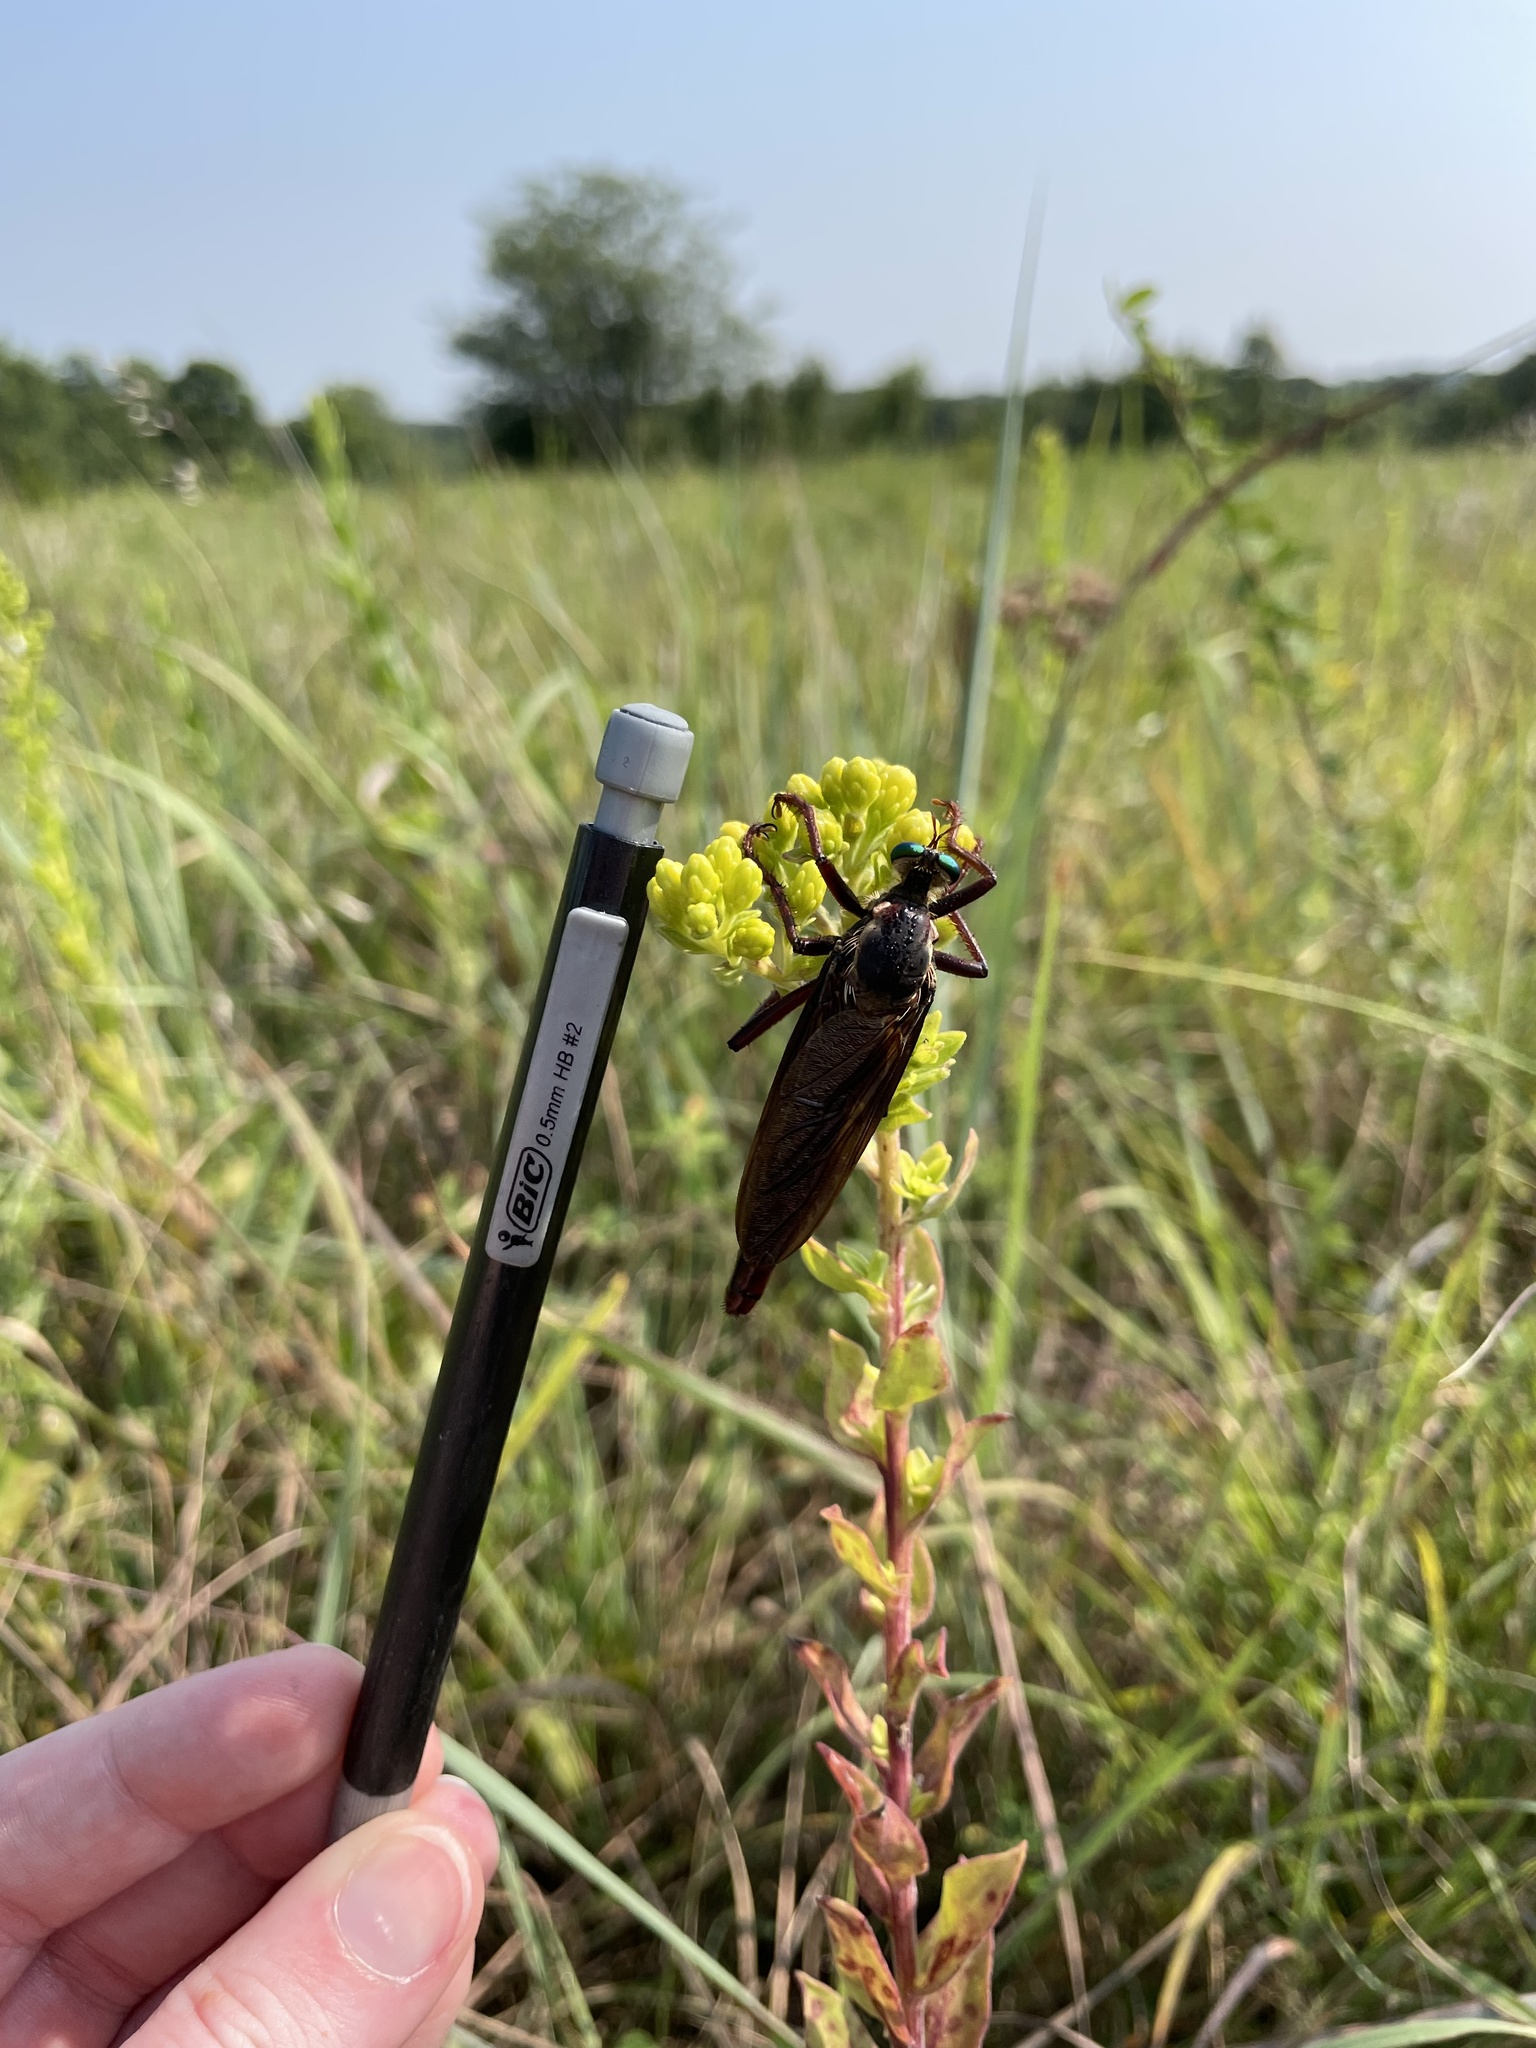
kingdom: Animalia
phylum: Arthropoda
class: Insecta
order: Diptera
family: Asilidae
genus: Microstylum
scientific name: Microstylum morosum
